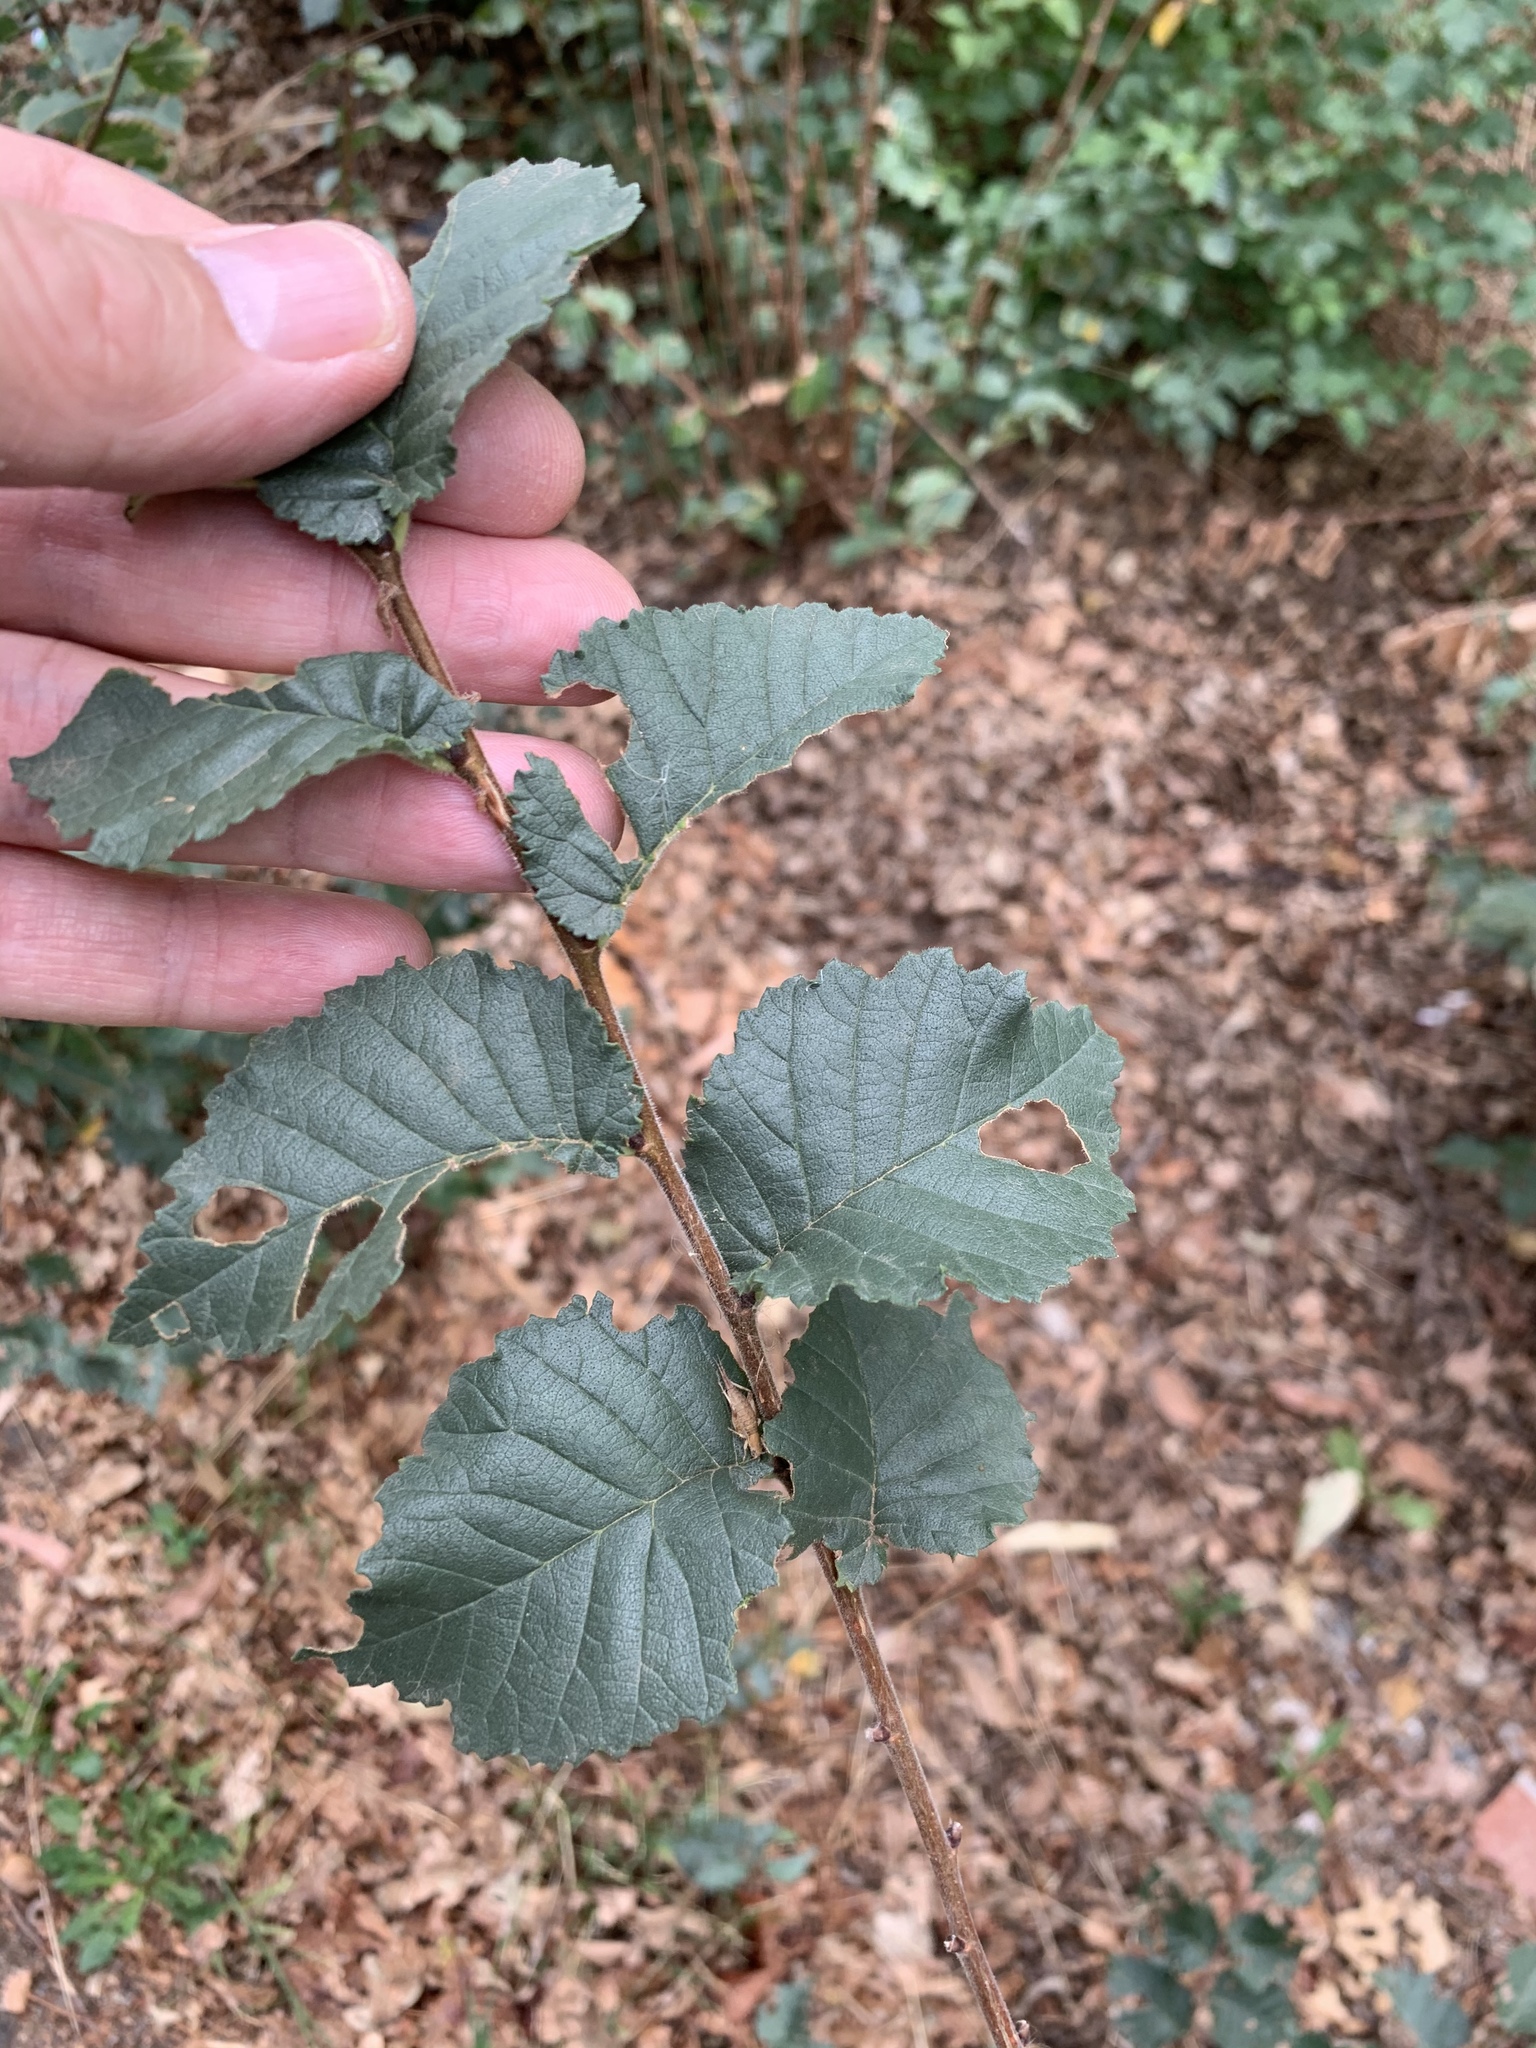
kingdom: Plantae
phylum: Tracheophyta
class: Magnoliopsida
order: Rosales
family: Ulmaceae
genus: Ulmus
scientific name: Ulmus minor
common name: Small-leaved elm
